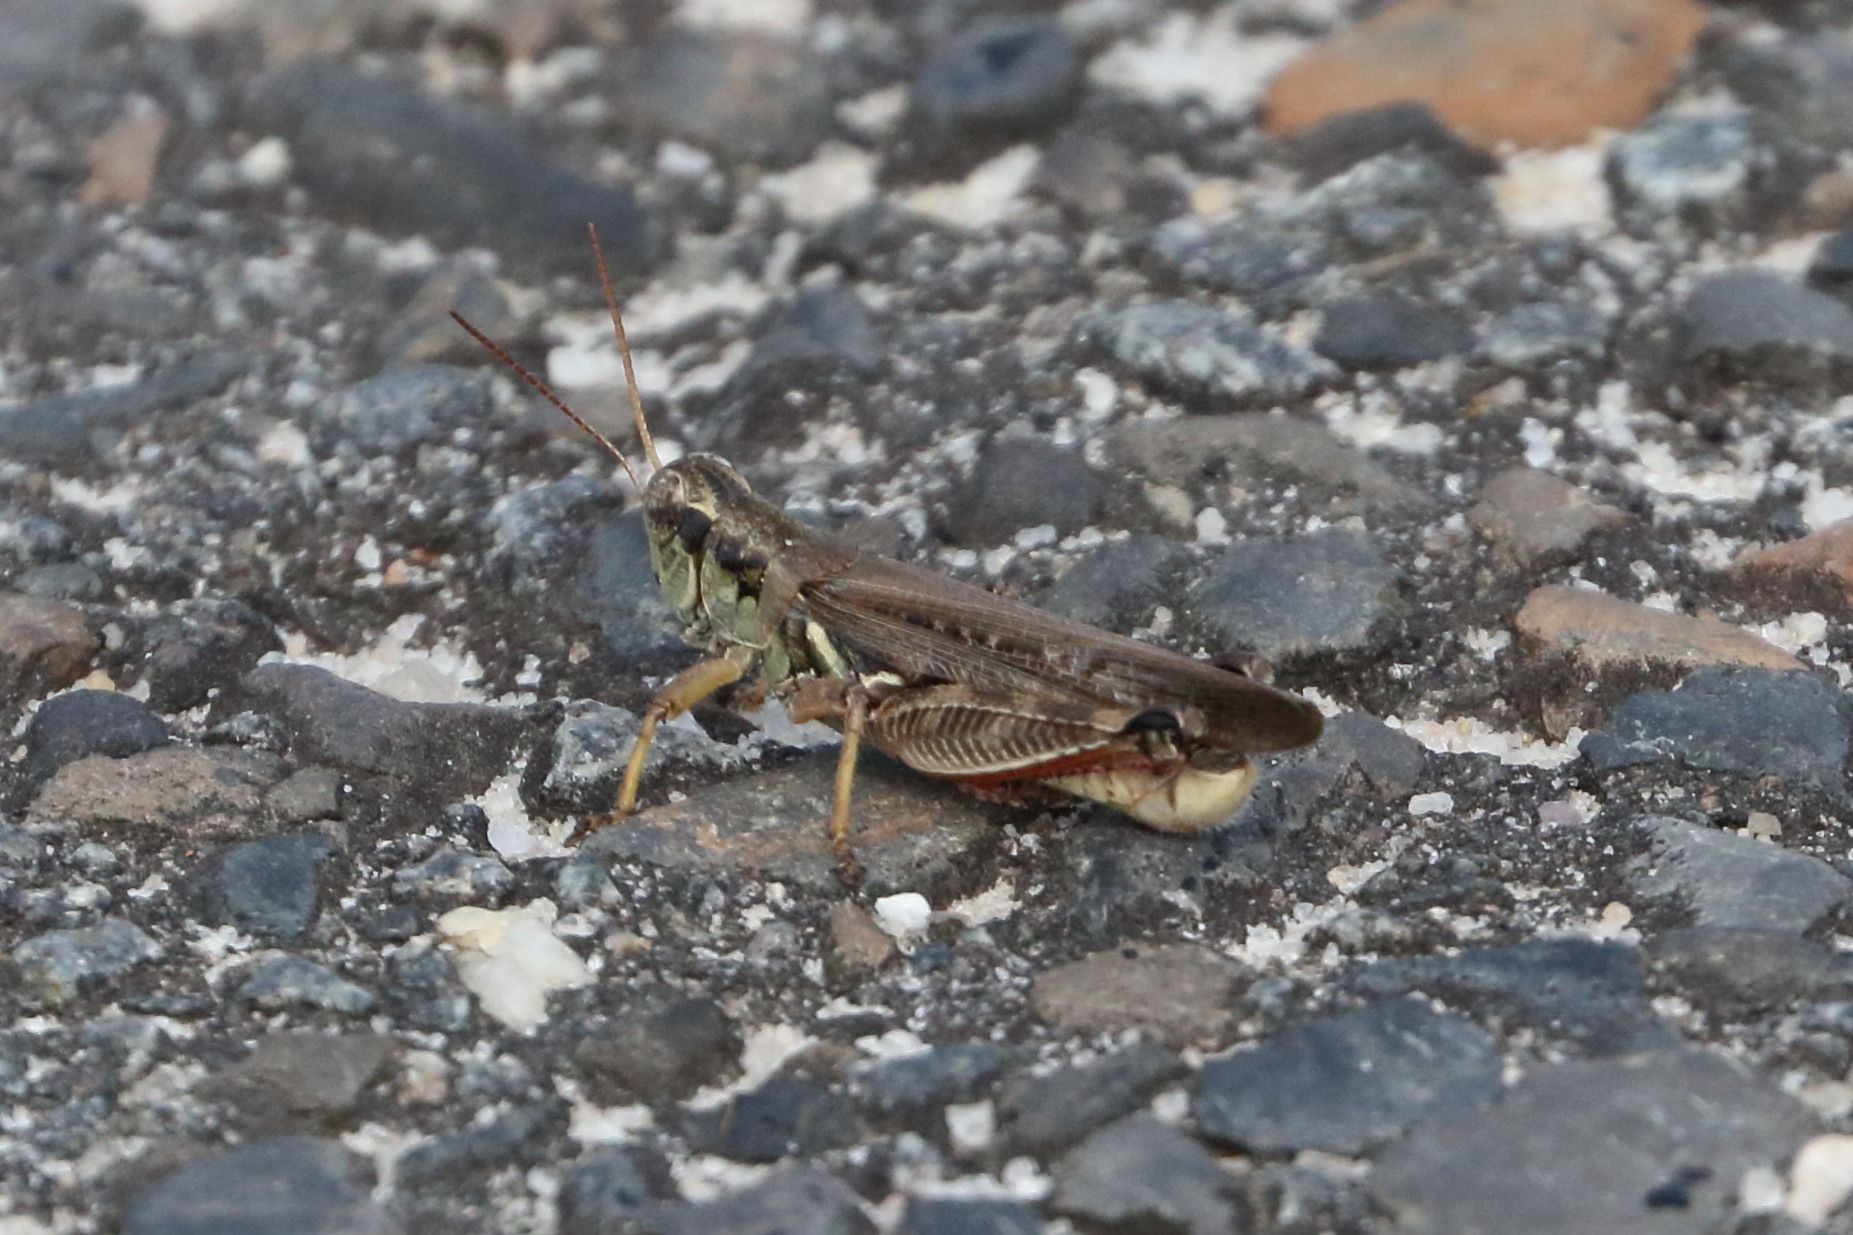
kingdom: Animalia
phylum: Arthropoda
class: Insecta
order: Orthoptera
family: Acrididae
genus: Melanoplus
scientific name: Melanoplus femurrubrum
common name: Red-legged grasshopper
